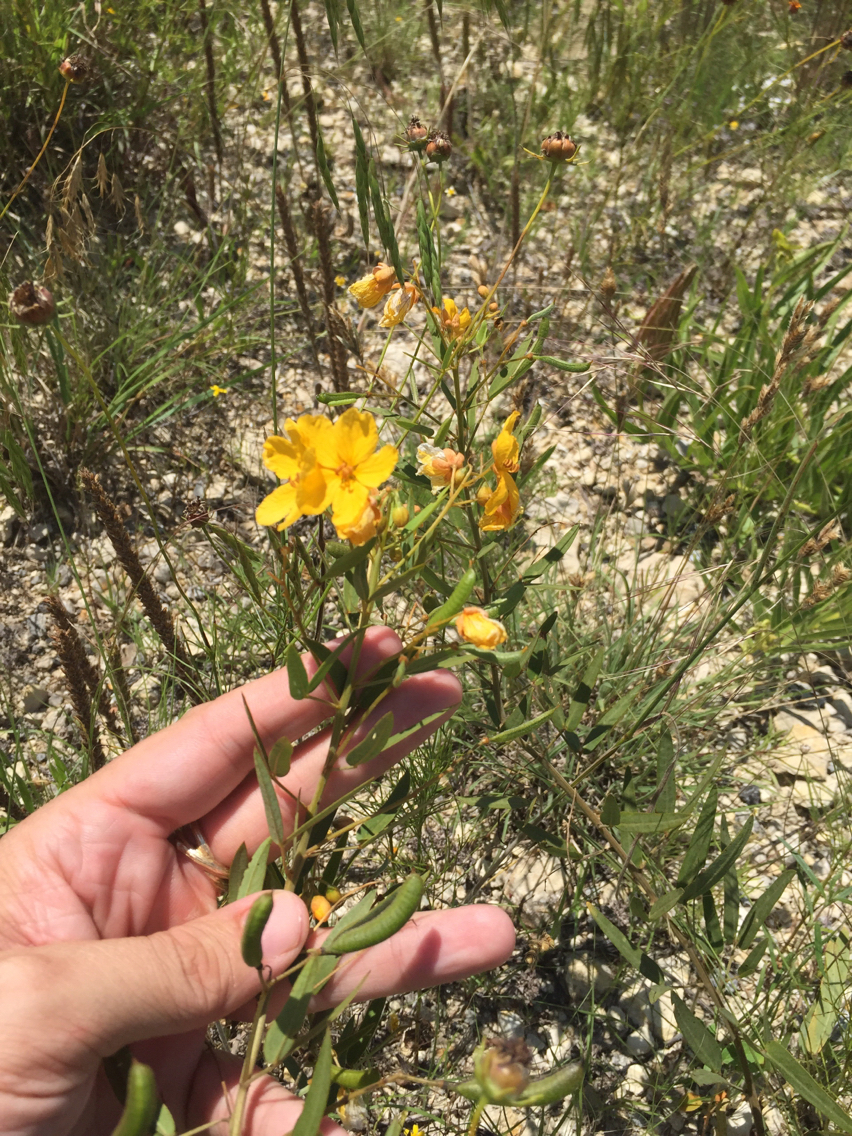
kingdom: Plantae
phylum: Tracheophyta
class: Magnoliopsida
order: Fabales
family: Fabaceae
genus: Senna
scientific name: Senna roemeriana
